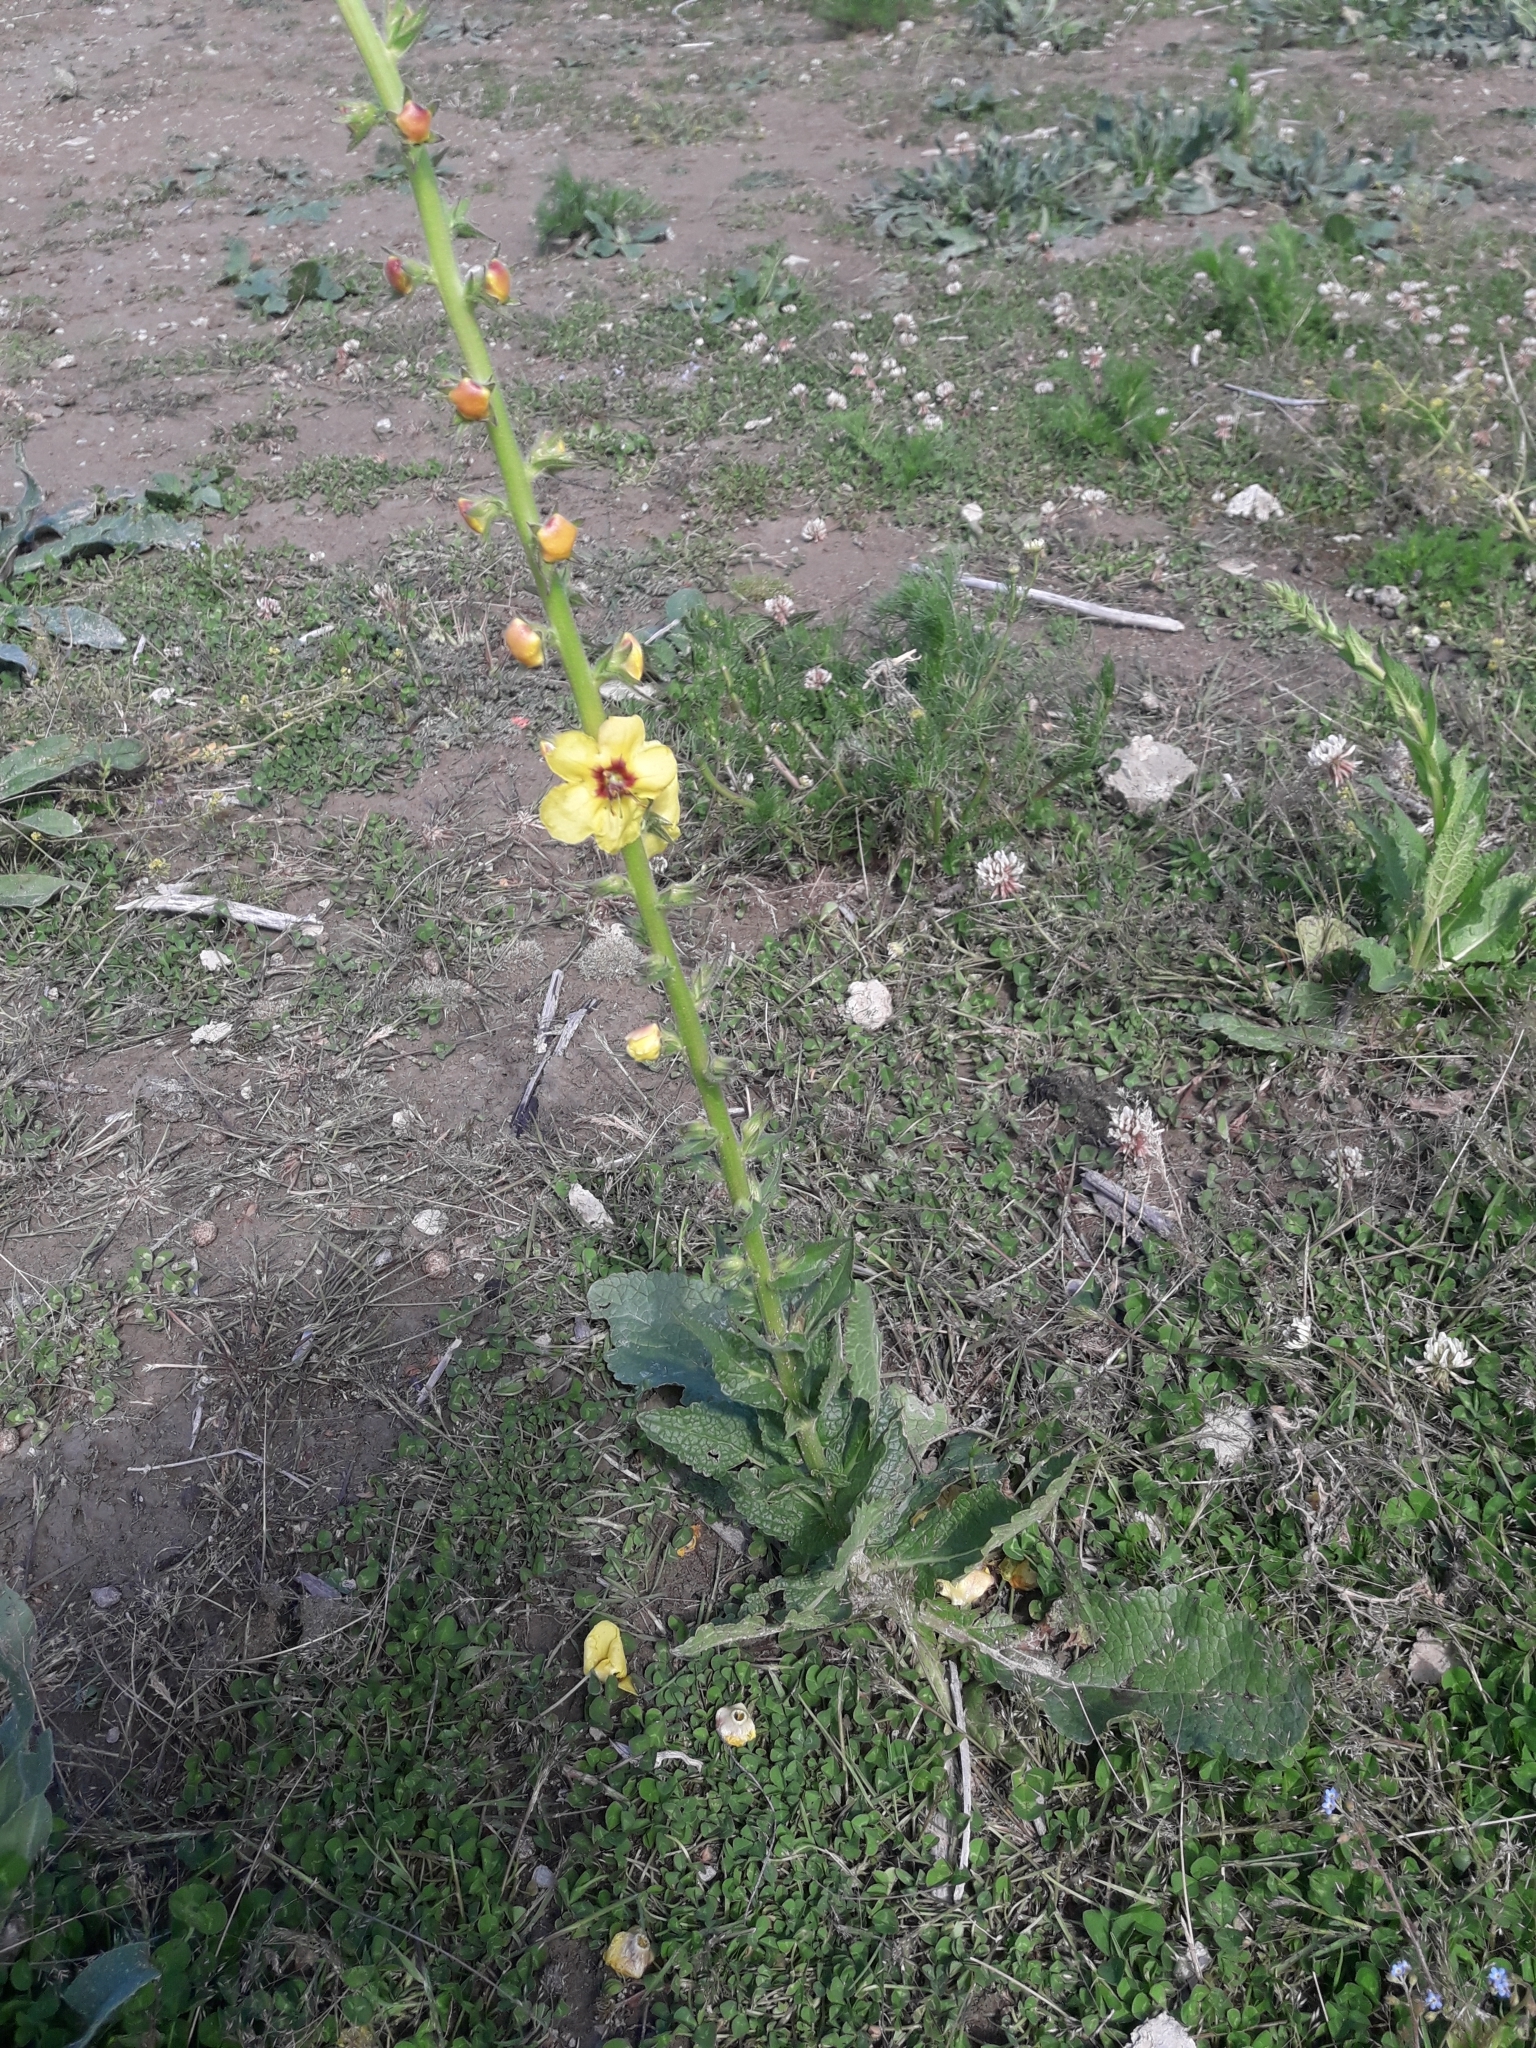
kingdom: Plantae
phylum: Tracheophyta
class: Magnoliopsida
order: Lamiales
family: Scrophulariaceae
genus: Verbascum
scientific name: Verbascum virgatum
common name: Twiggy mullein
